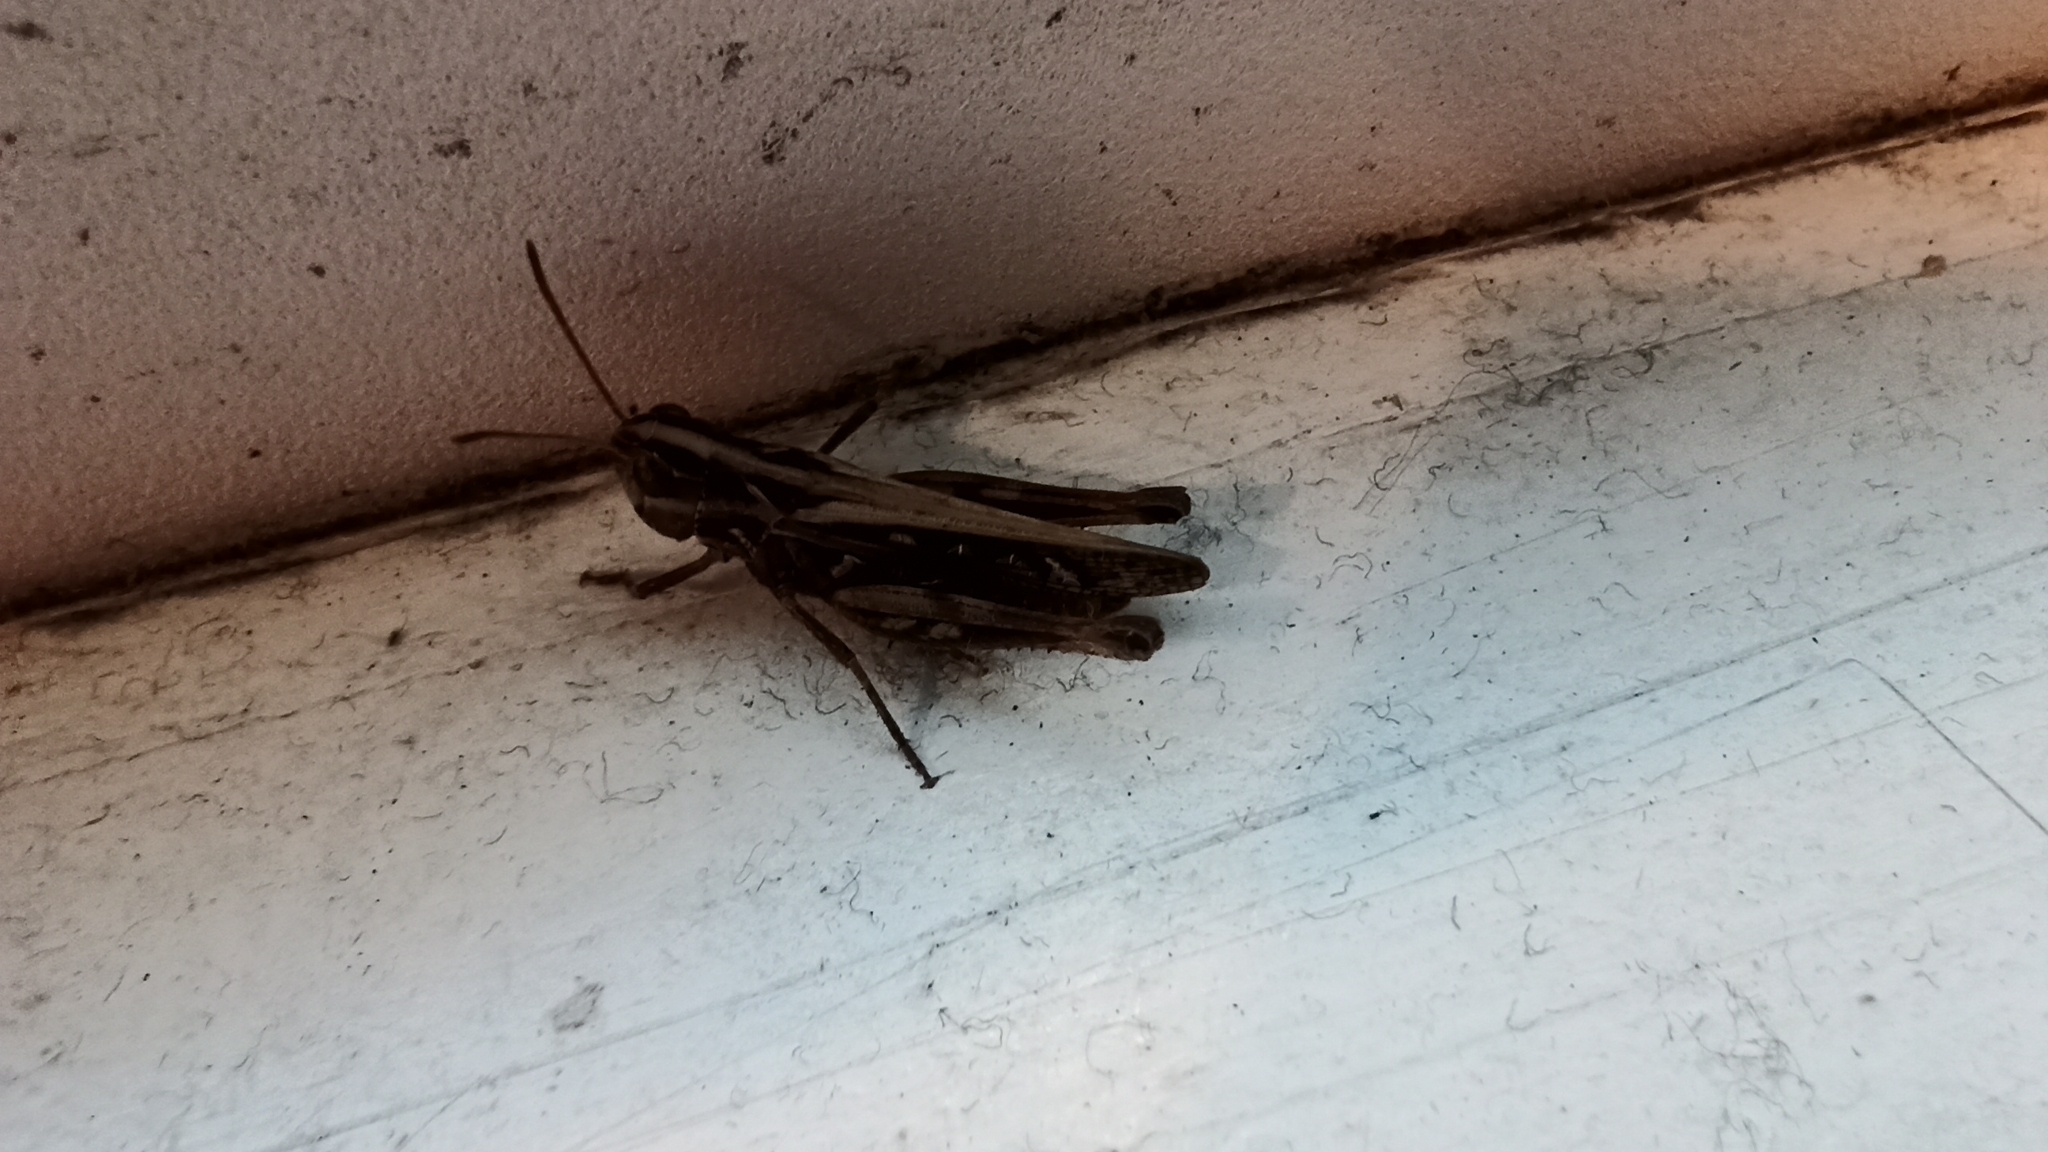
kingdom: Animalia
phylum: Arthropoda
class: Insecta
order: Orthoptera
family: Acrididae
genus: Myrmeleotettix
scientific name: Myrmeleotettix maculatus
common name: Mottled grasshopper
